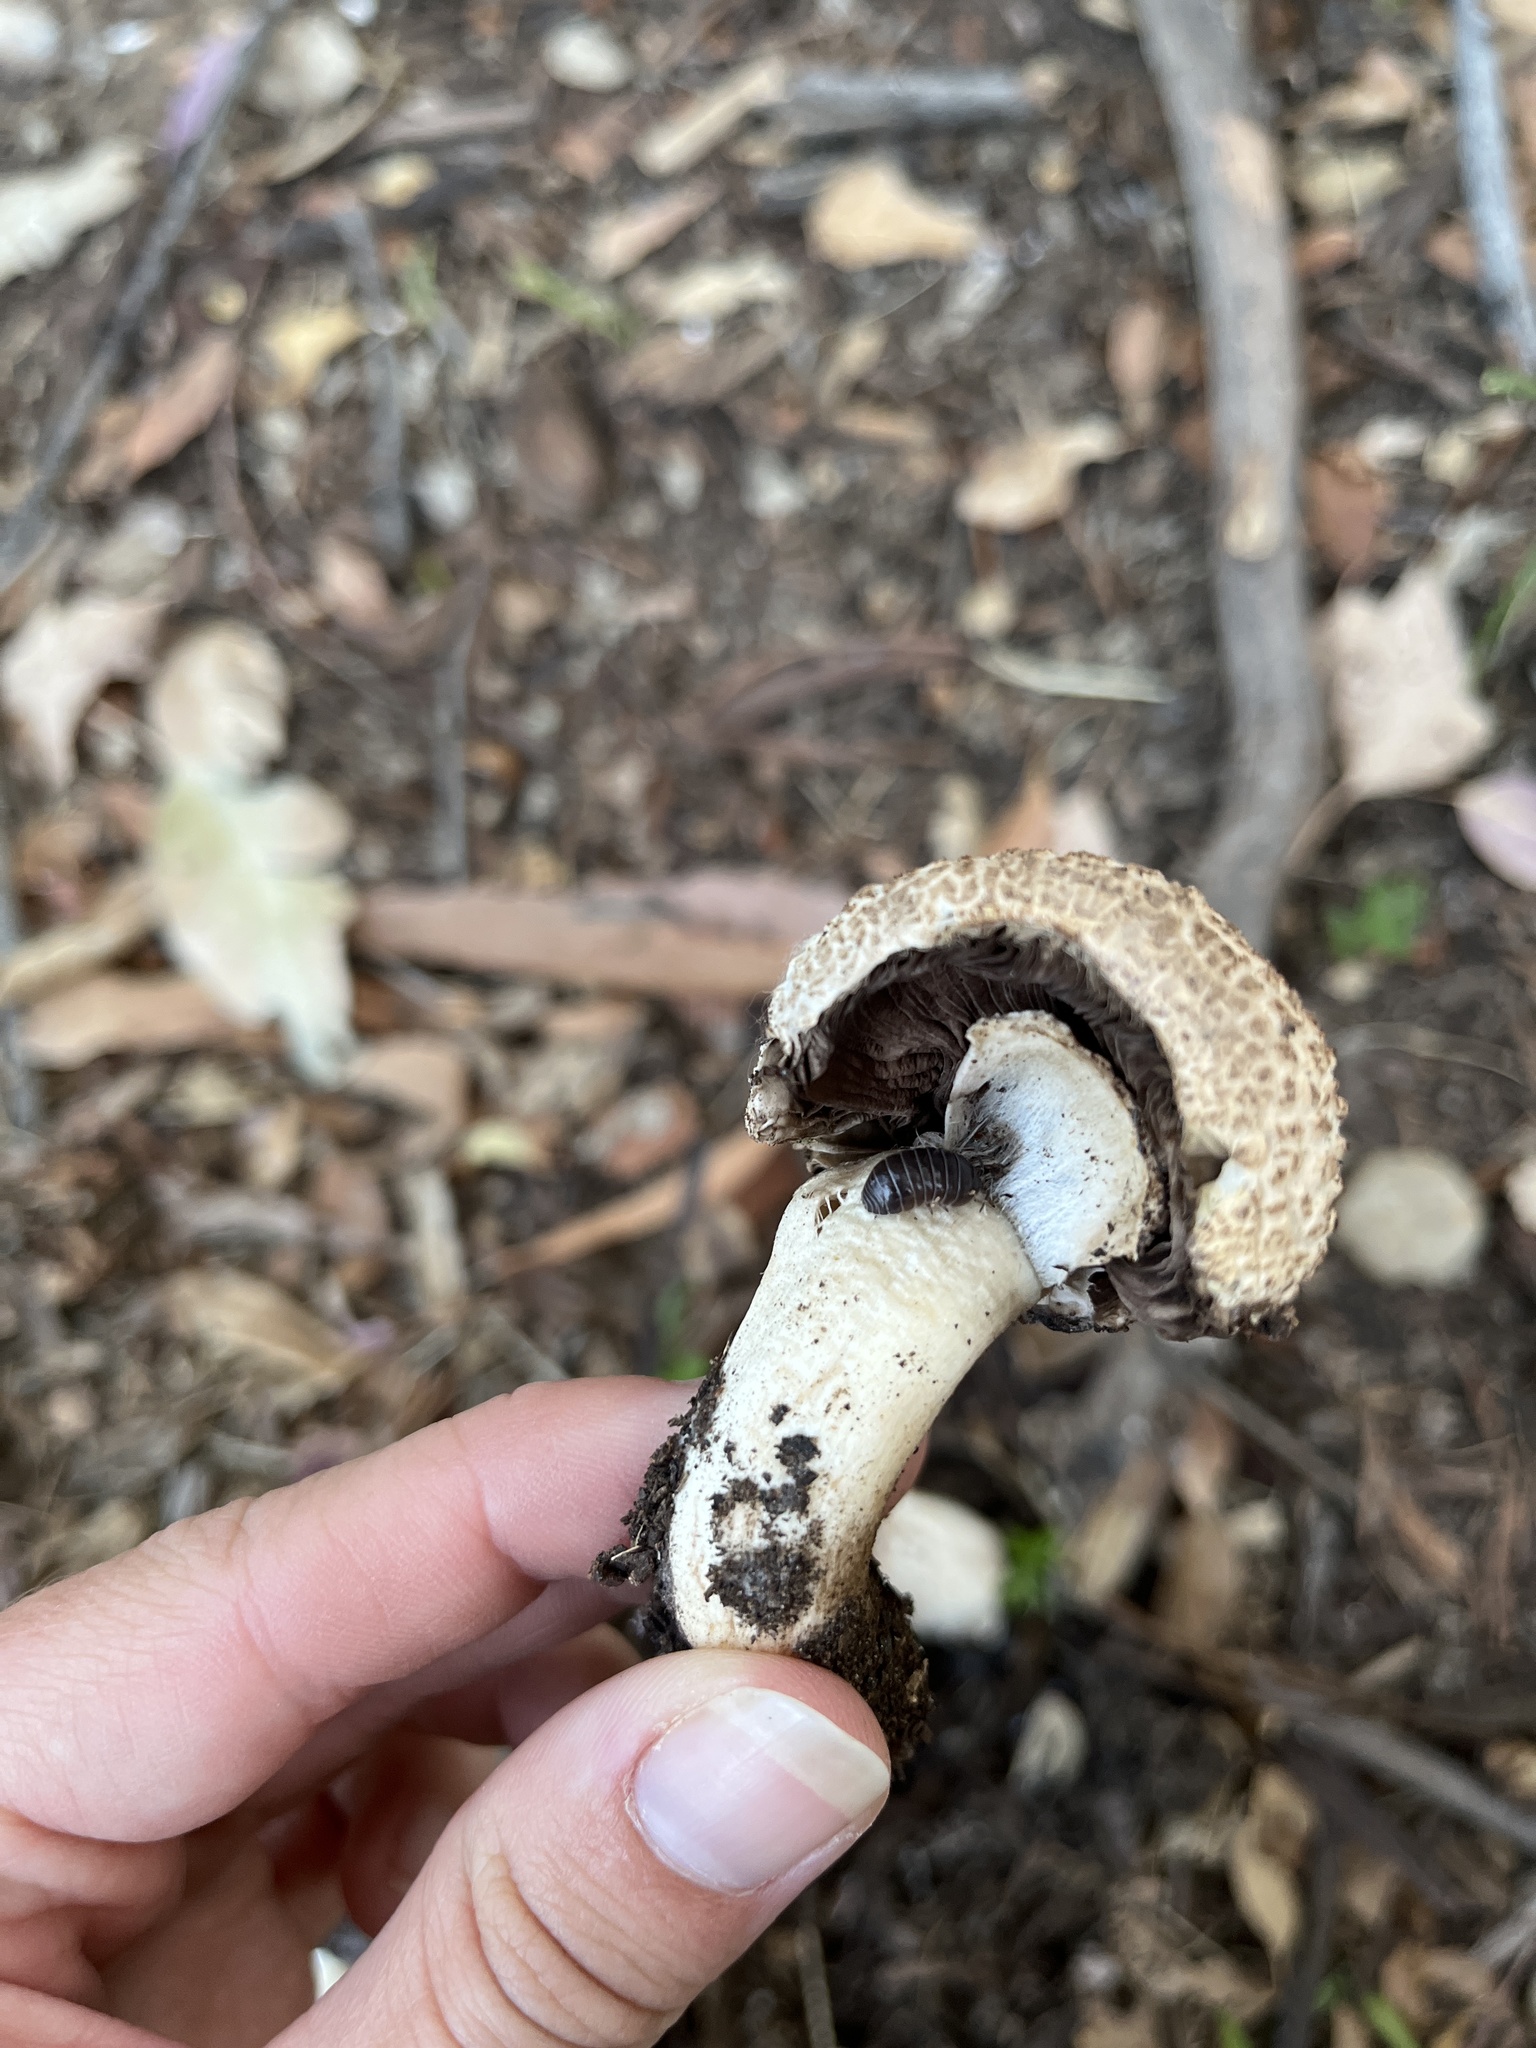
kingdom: Animalia
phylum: Arthropoda
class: Malacostraca
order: Isopoda
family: Armadillidiidae
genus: Armadillidium
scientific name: Armadillidium vulgare
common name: Common pill woodlouse
